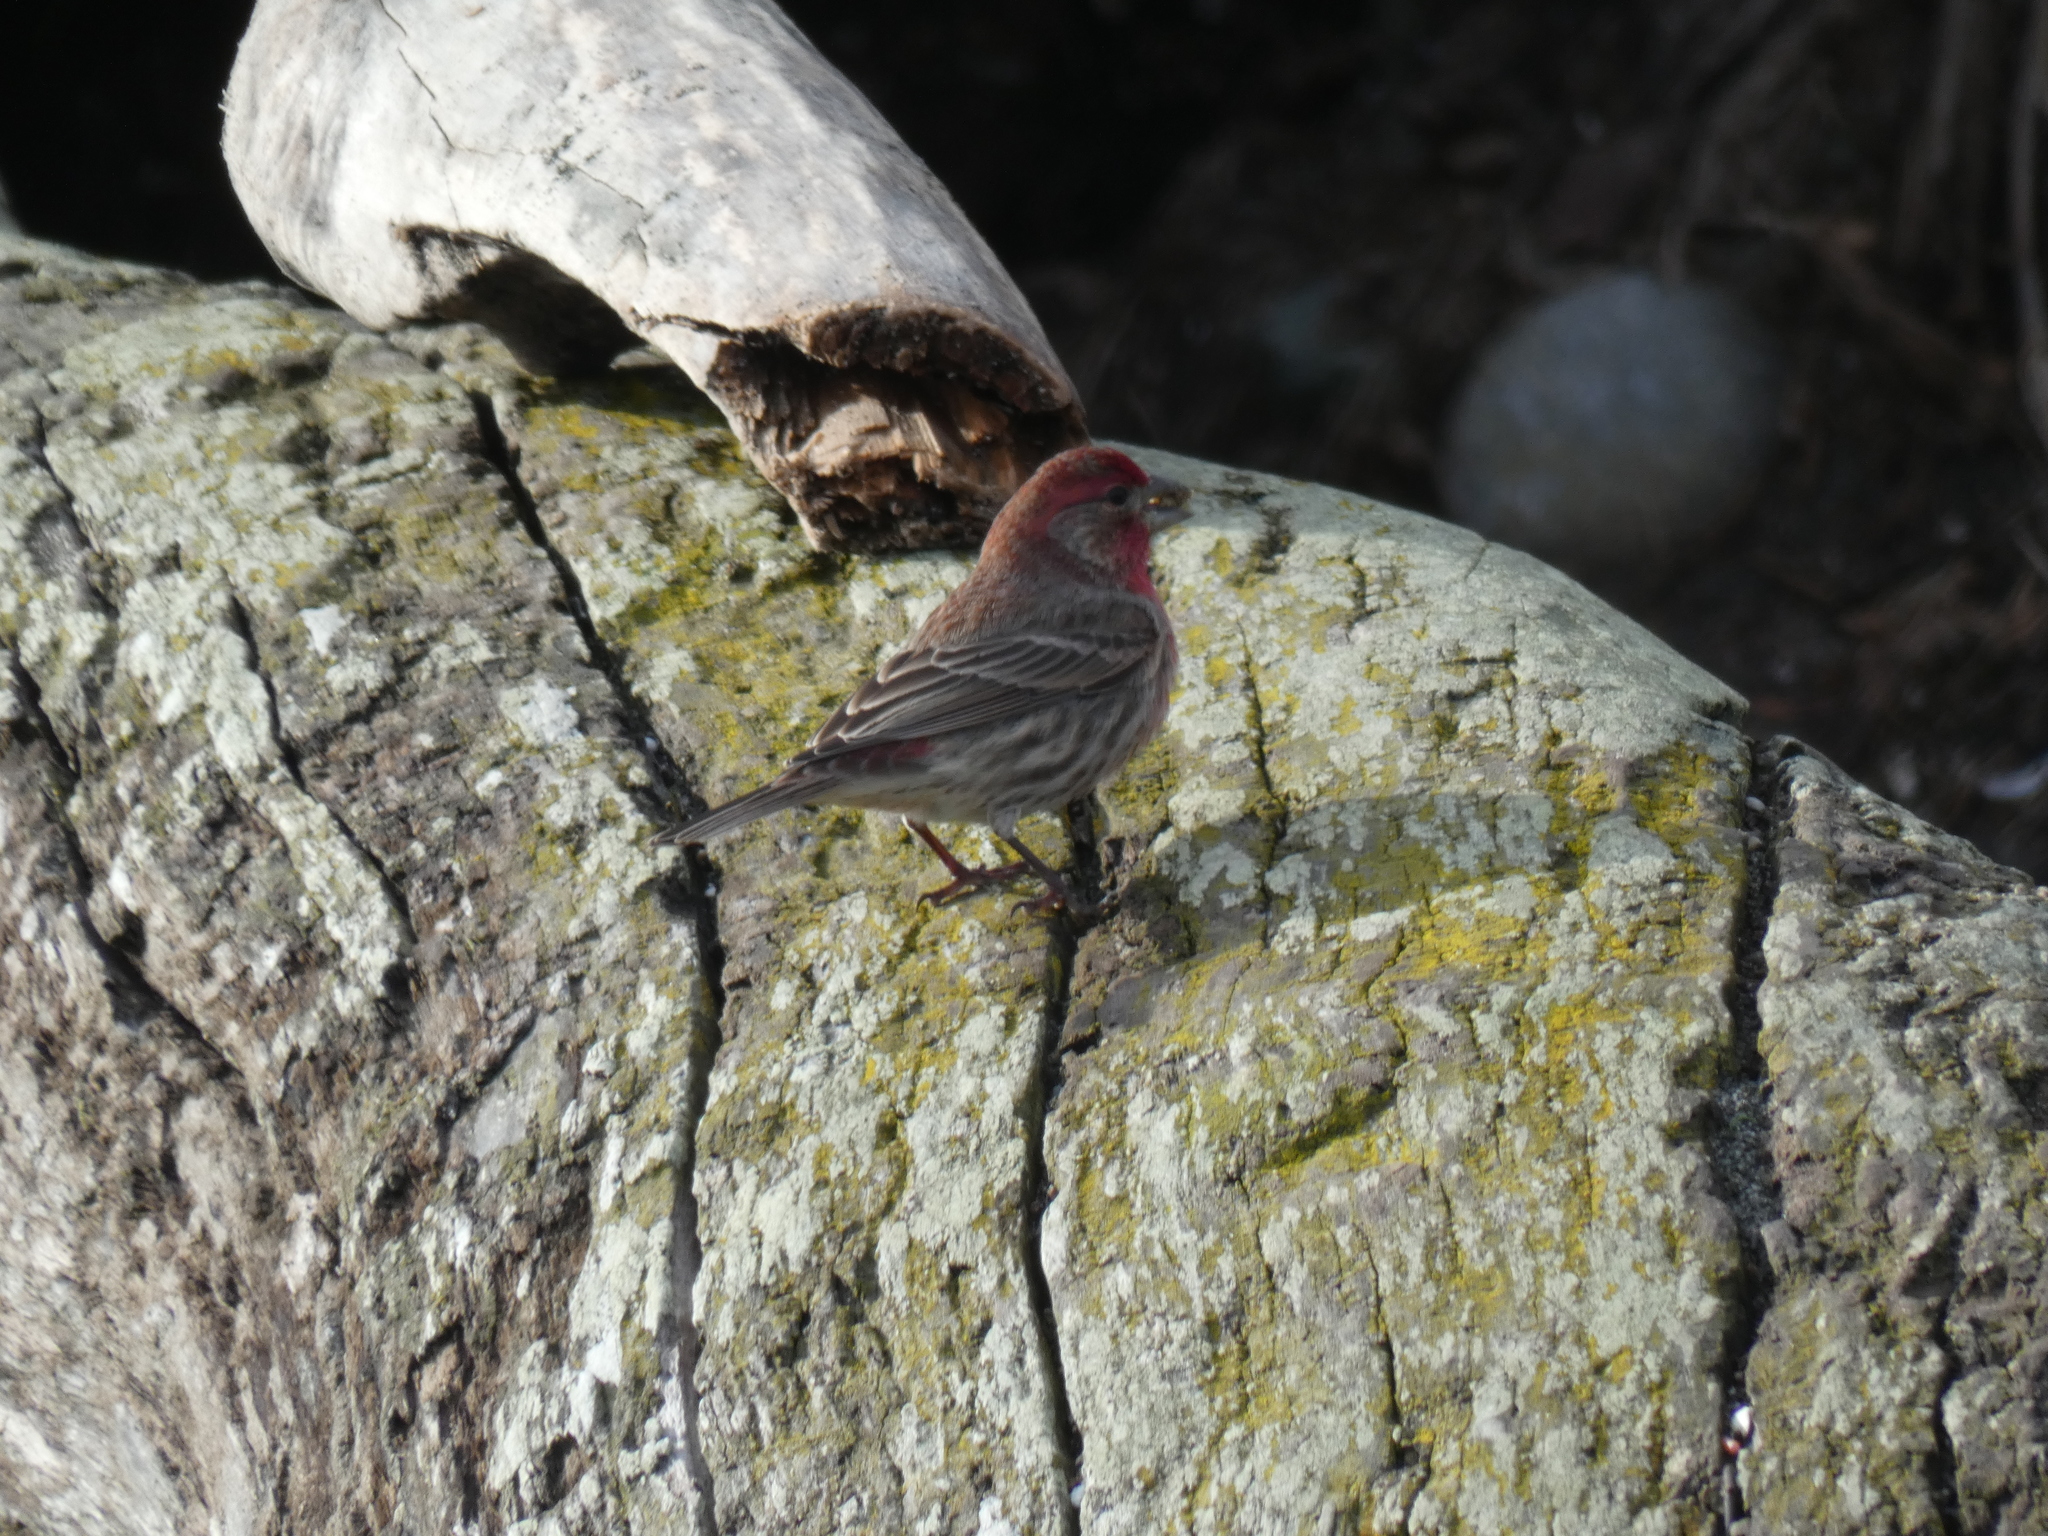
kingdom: Animalia
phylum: Chordata
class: Aves
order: Passeriformes
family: Fringillidae
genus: Haemorhous
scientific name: Haemorhous mexicanus
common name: House finch
